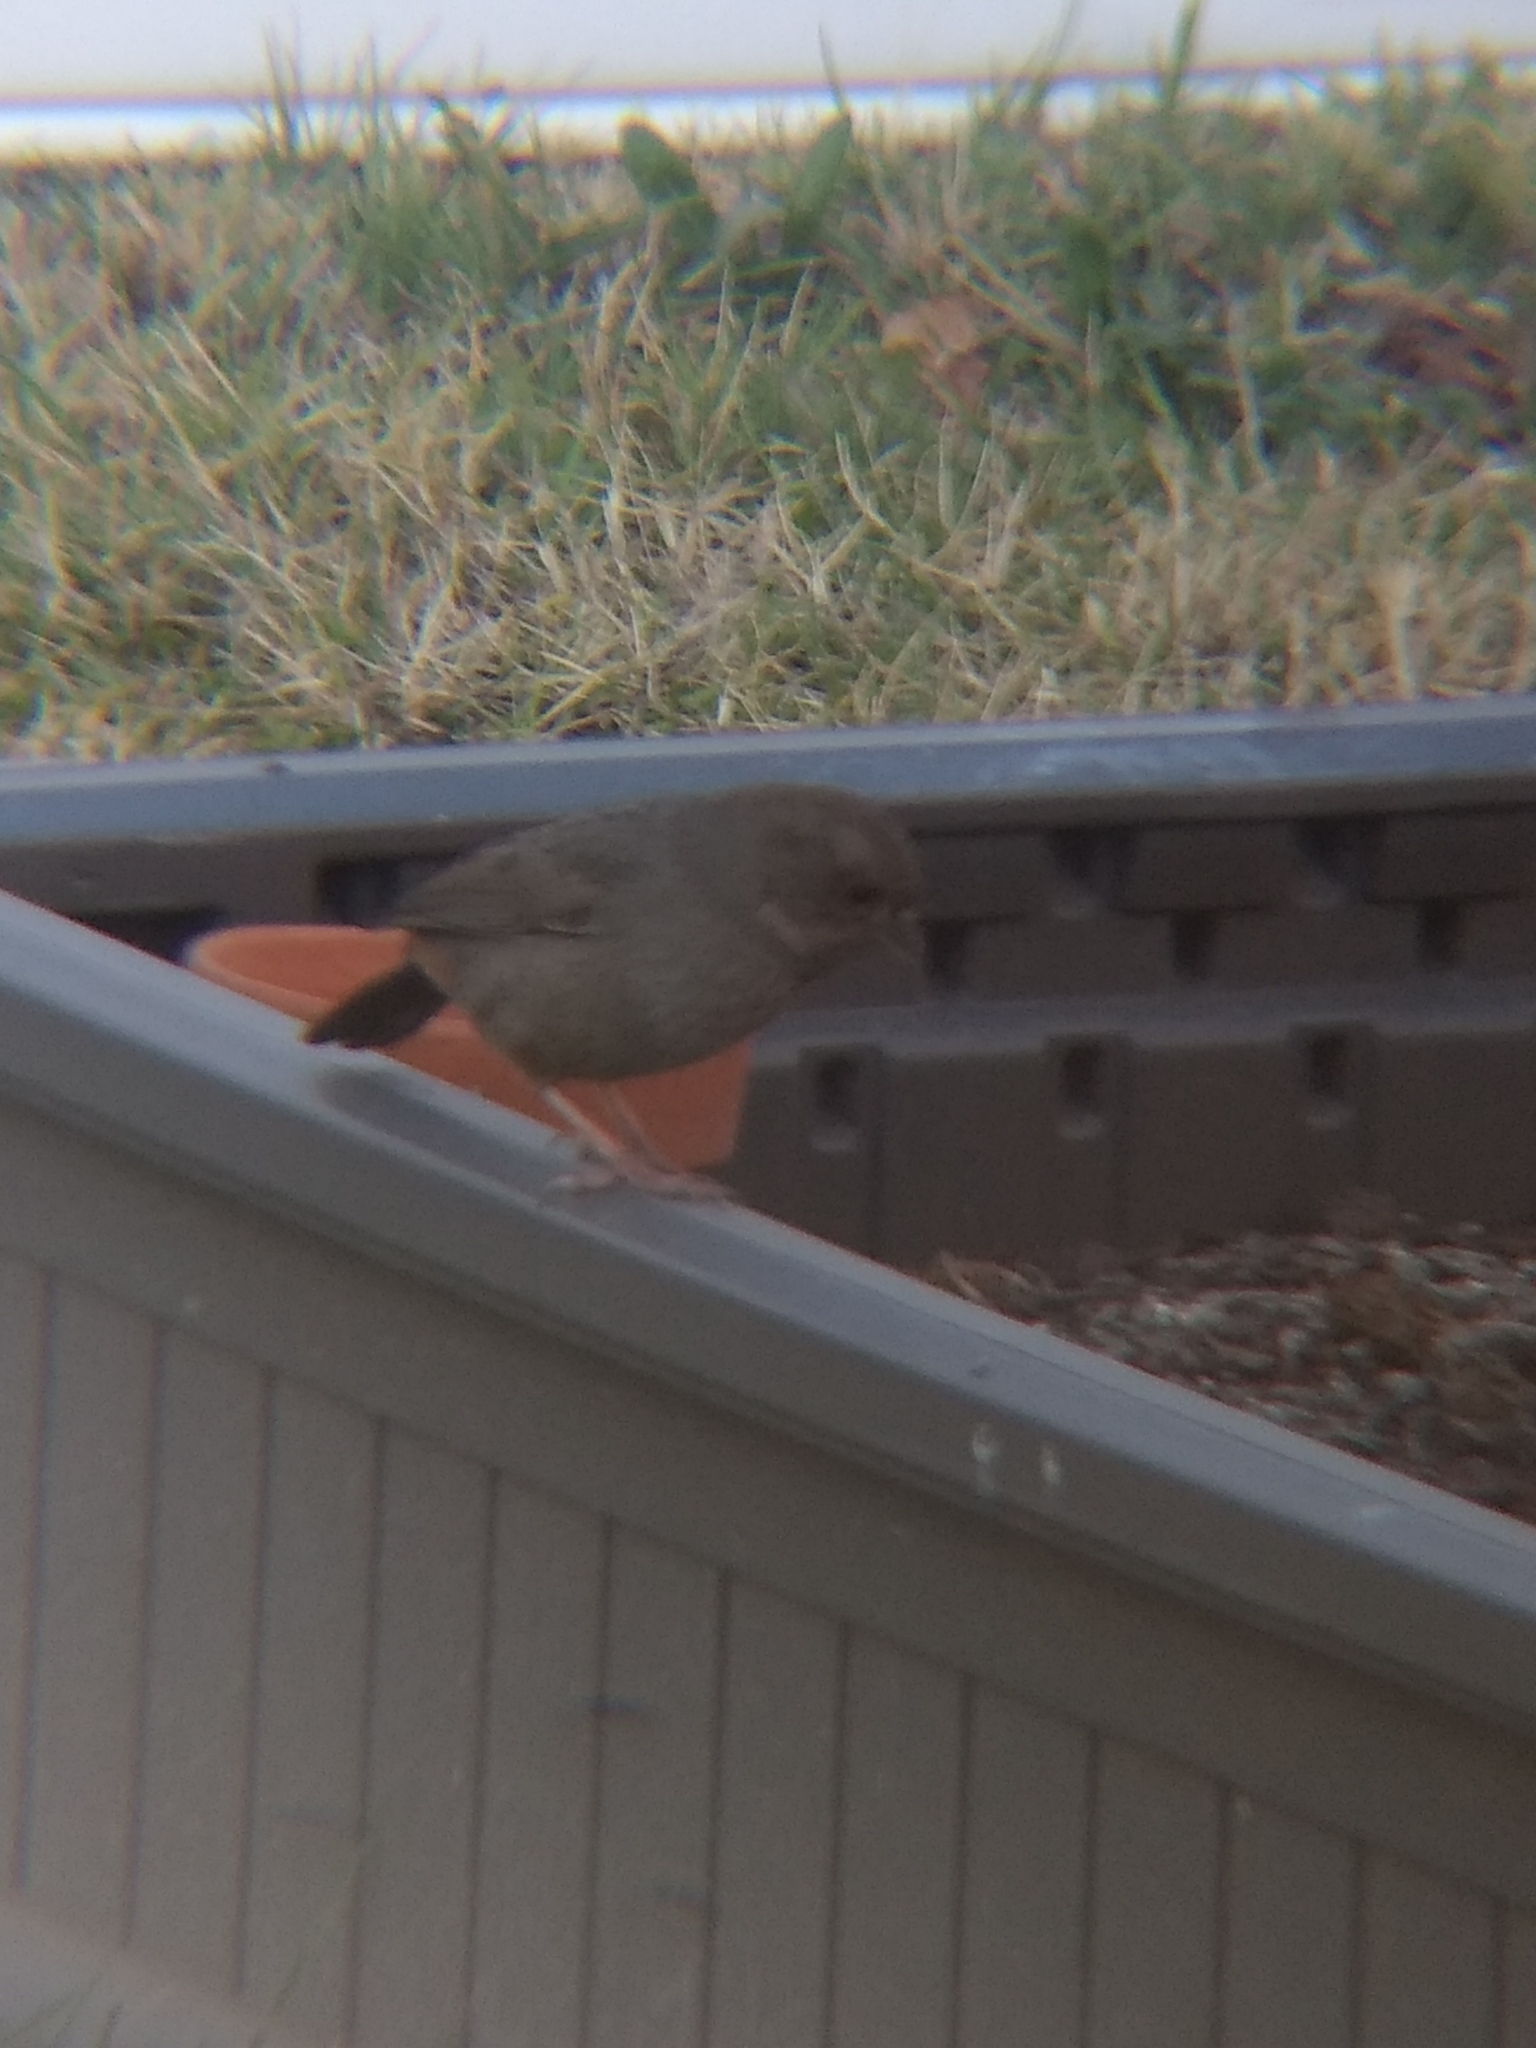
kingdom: Animalia
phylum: Chordata
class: Aves
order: Passeriformes
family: Passerellidae
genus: Melozone
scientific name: Melozone crissalis
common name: California towhee
